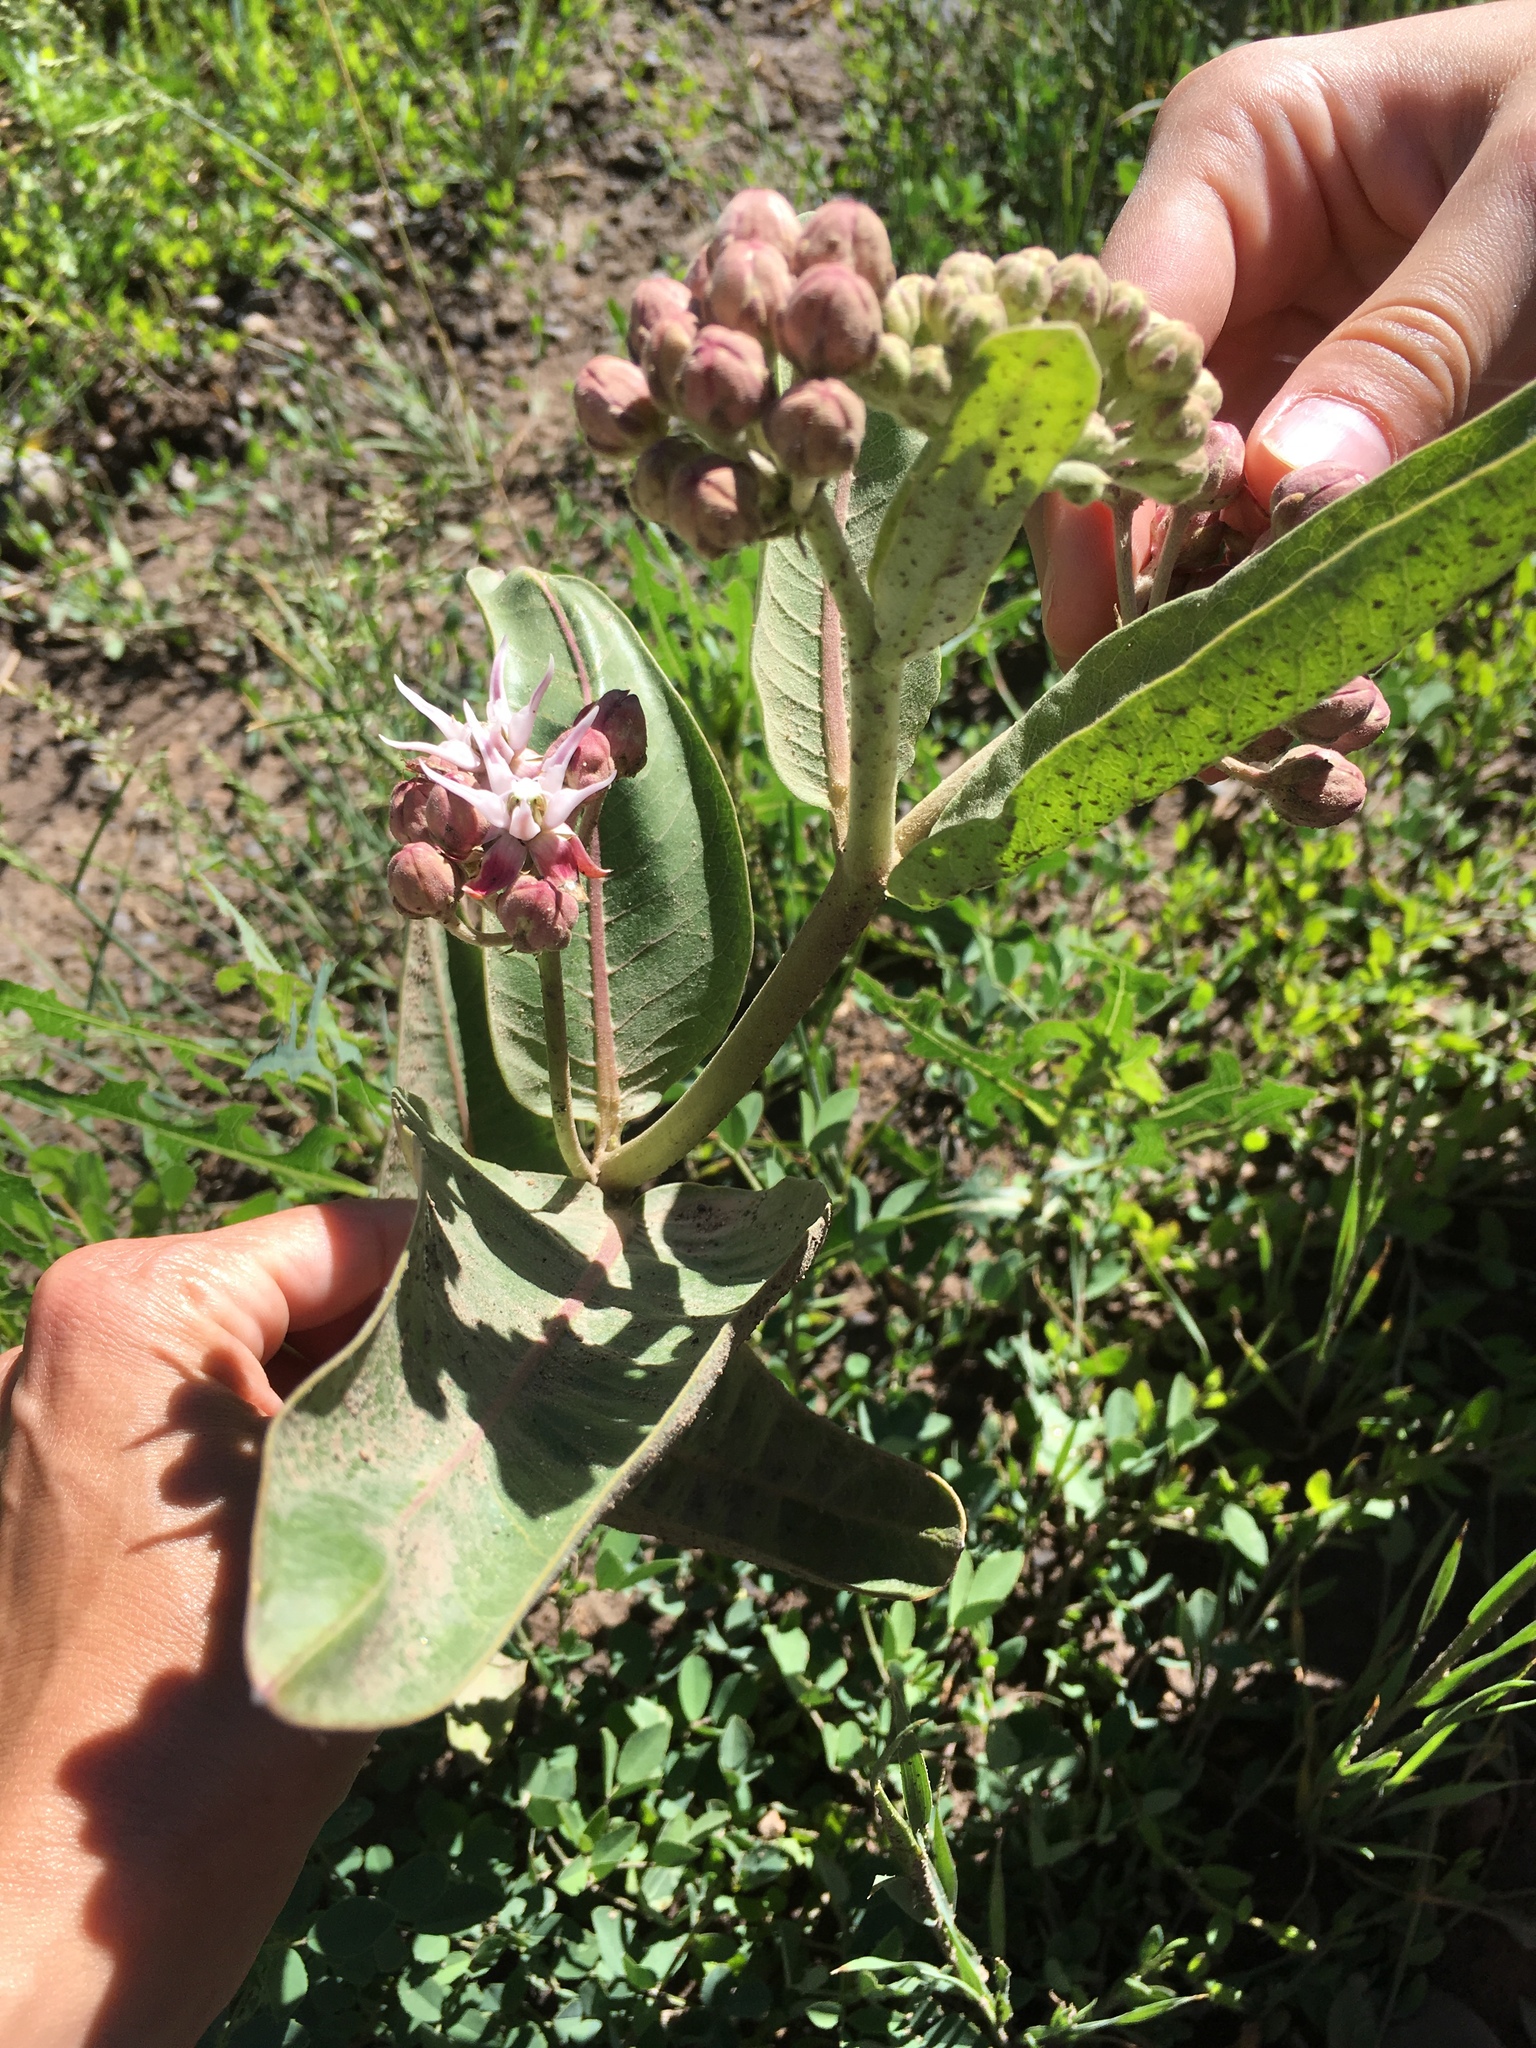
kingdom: Plantae
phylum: Tracheophyta
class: Magnoliopsida
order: Gentianales
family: Apocynaceae
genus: Asclepias
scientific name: Asclepias speciosa
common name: Showy milkweed
